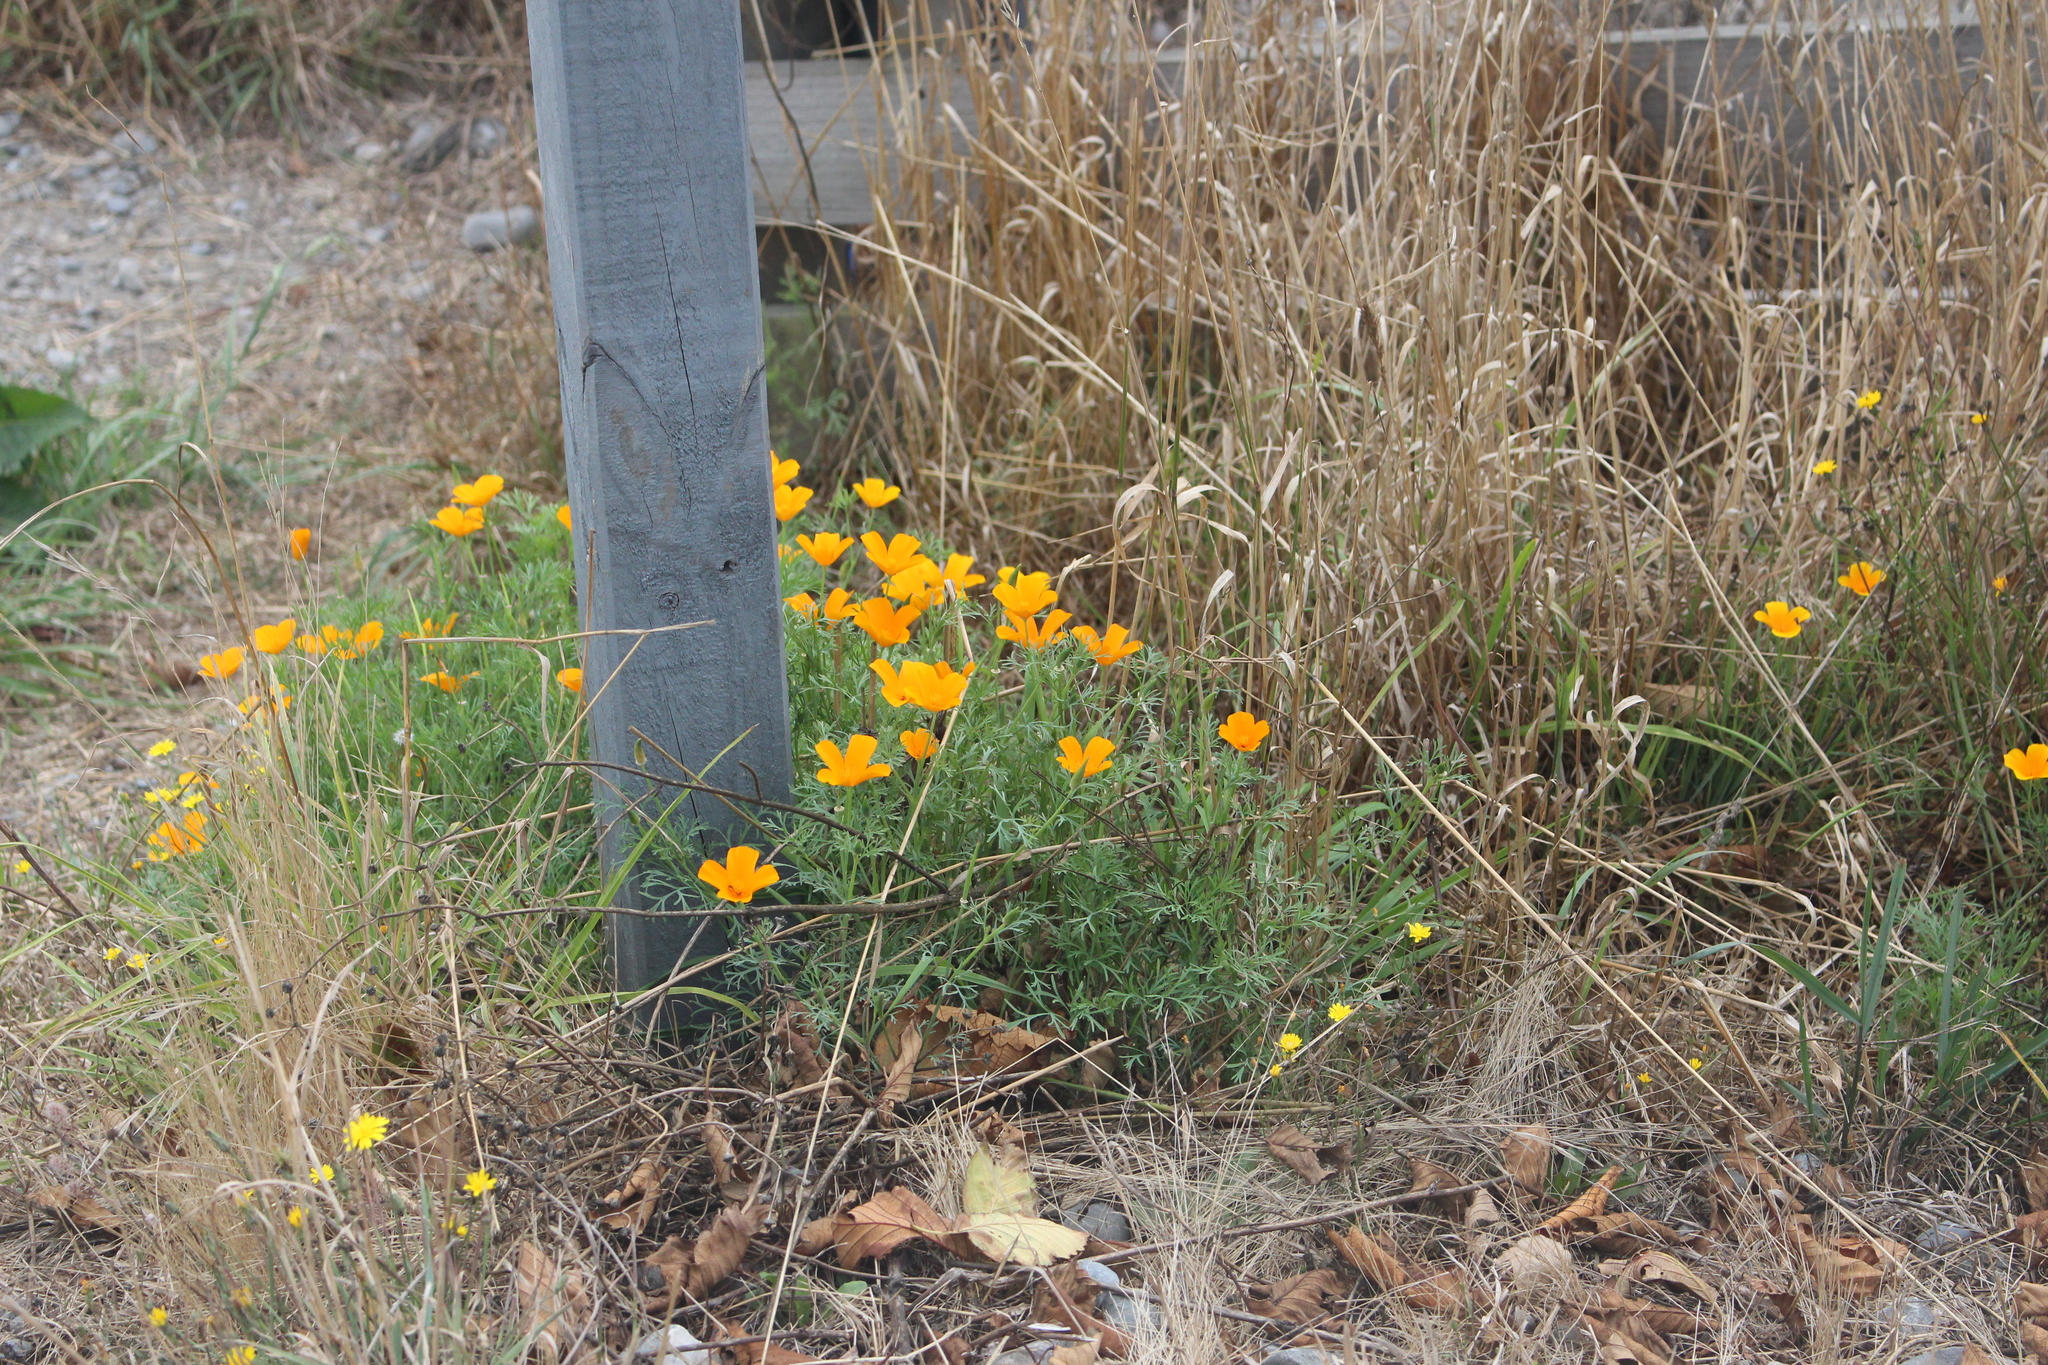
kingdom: Plantae
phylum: Tracheophyta
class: Magnoliopsida
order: Ranunculales
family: Papaveraceae
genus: Eschscholzia
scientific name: Eschscholzia californica
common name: California poppy
